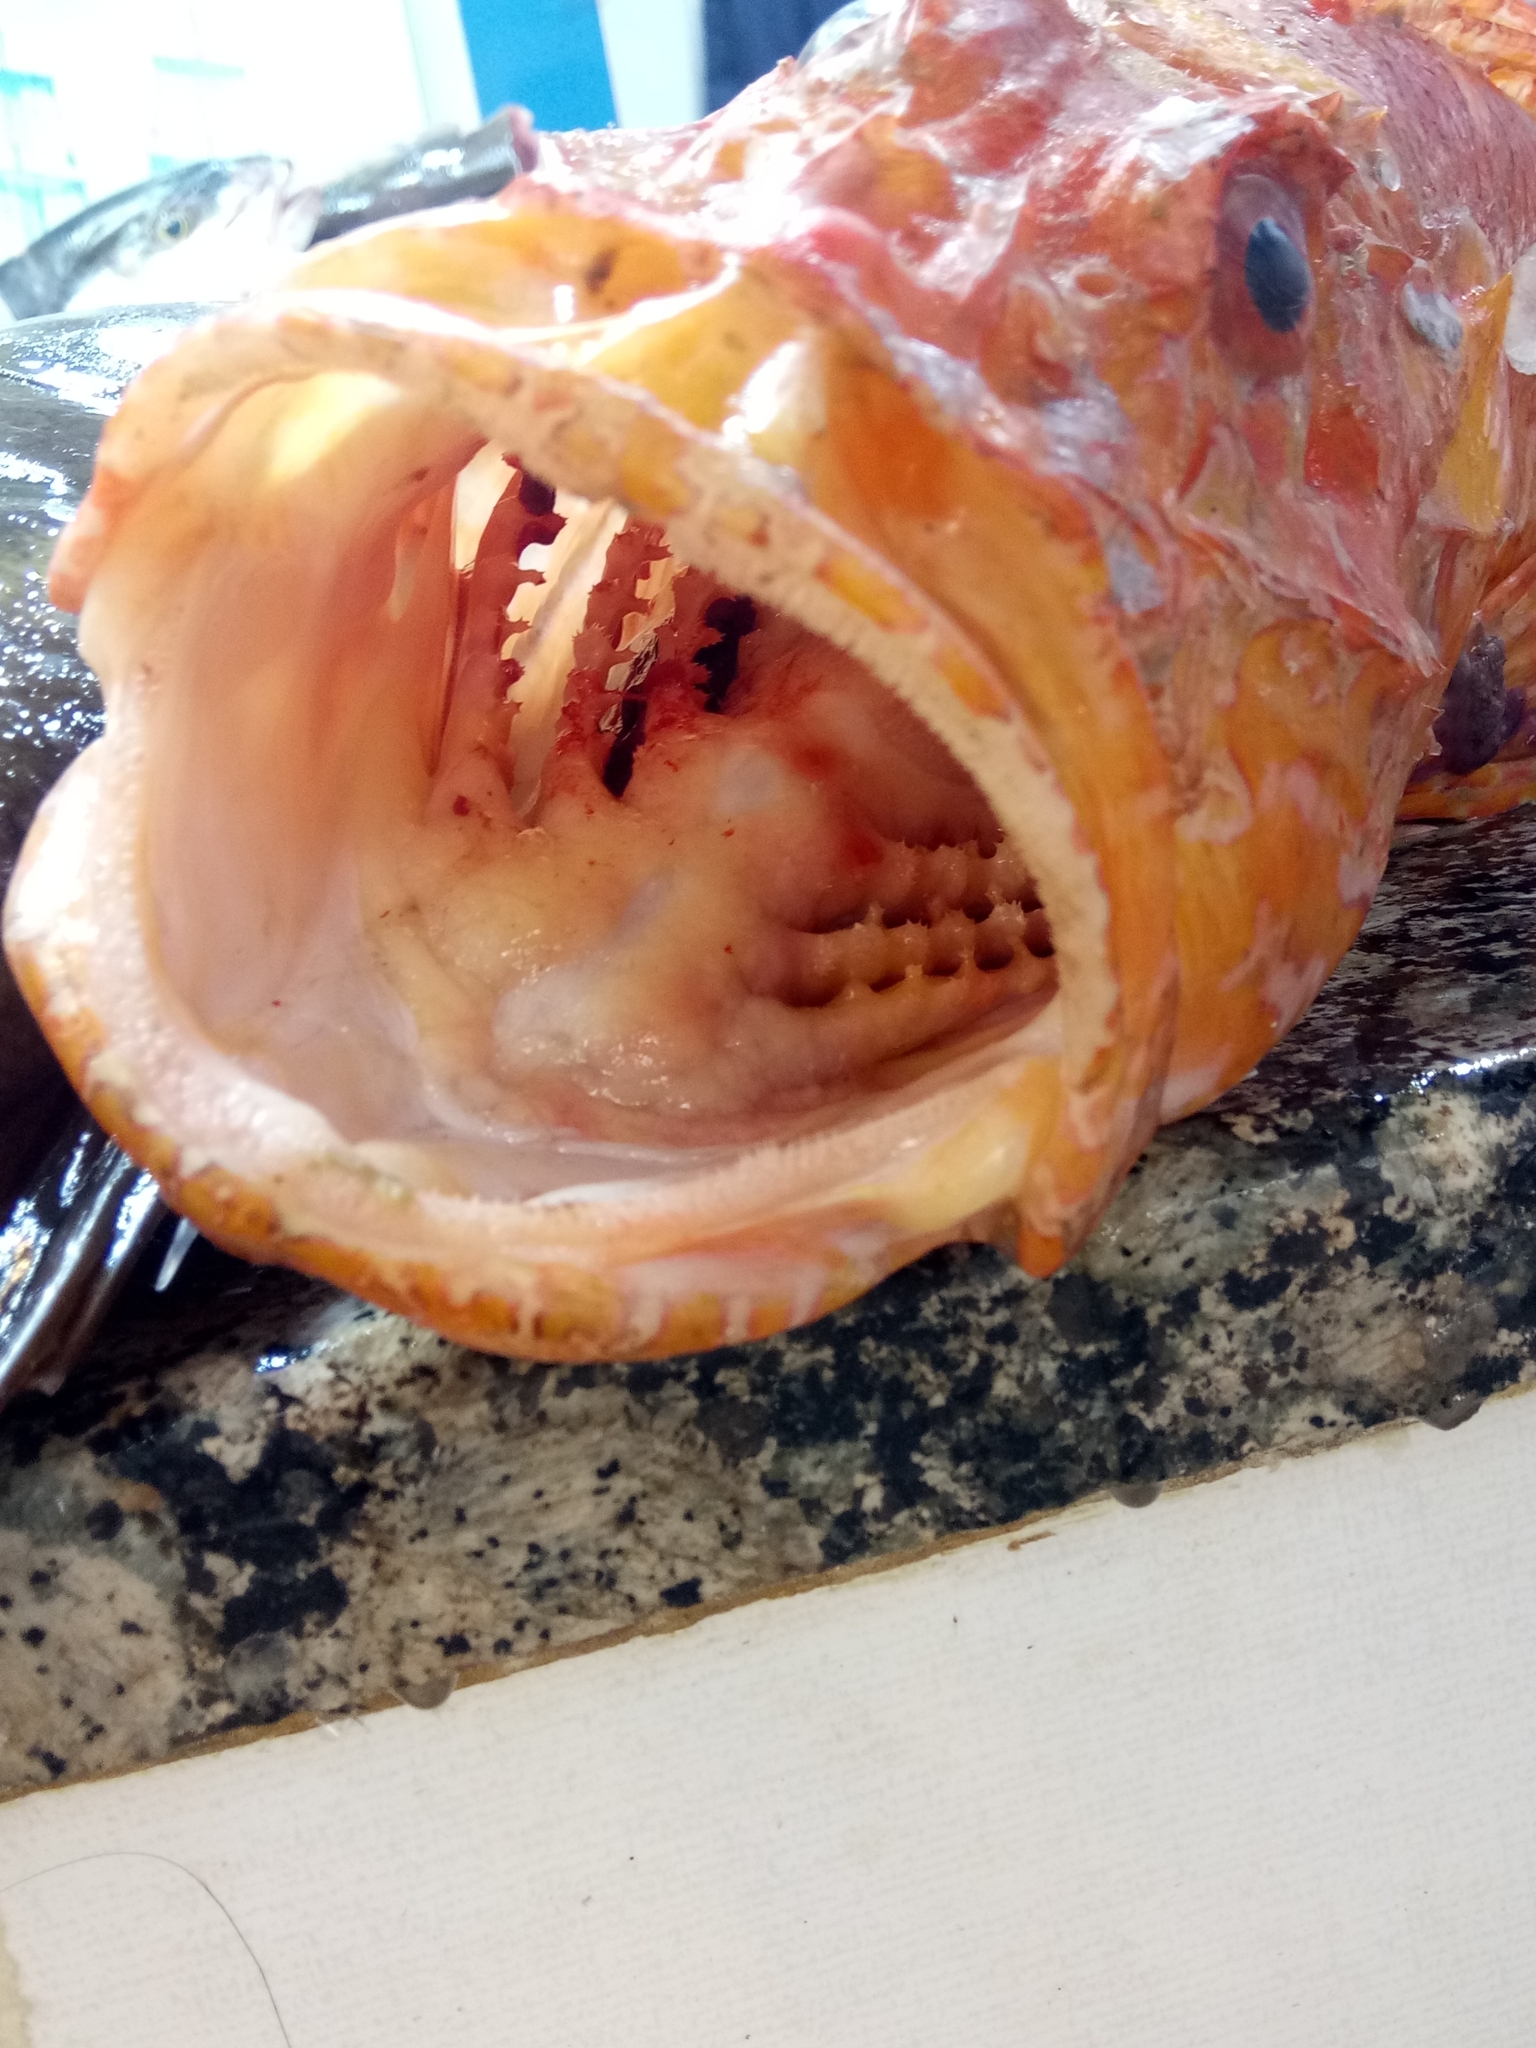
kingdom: Animalia
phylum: Chordata
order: Scorpaeniformes
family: Scorpaenidae
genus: Scorpaena
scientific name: Scorpaena scrofa
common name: Red scorpionfish
